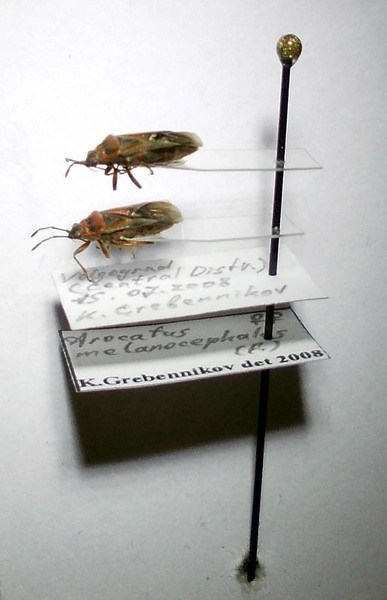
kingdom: Animalia
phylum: Arthropoda
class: Insecta
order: Hemiptera
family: Lygaeidae
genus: Arocatus
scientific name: Arocatus melanocephalus
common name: Lygaeid bug
